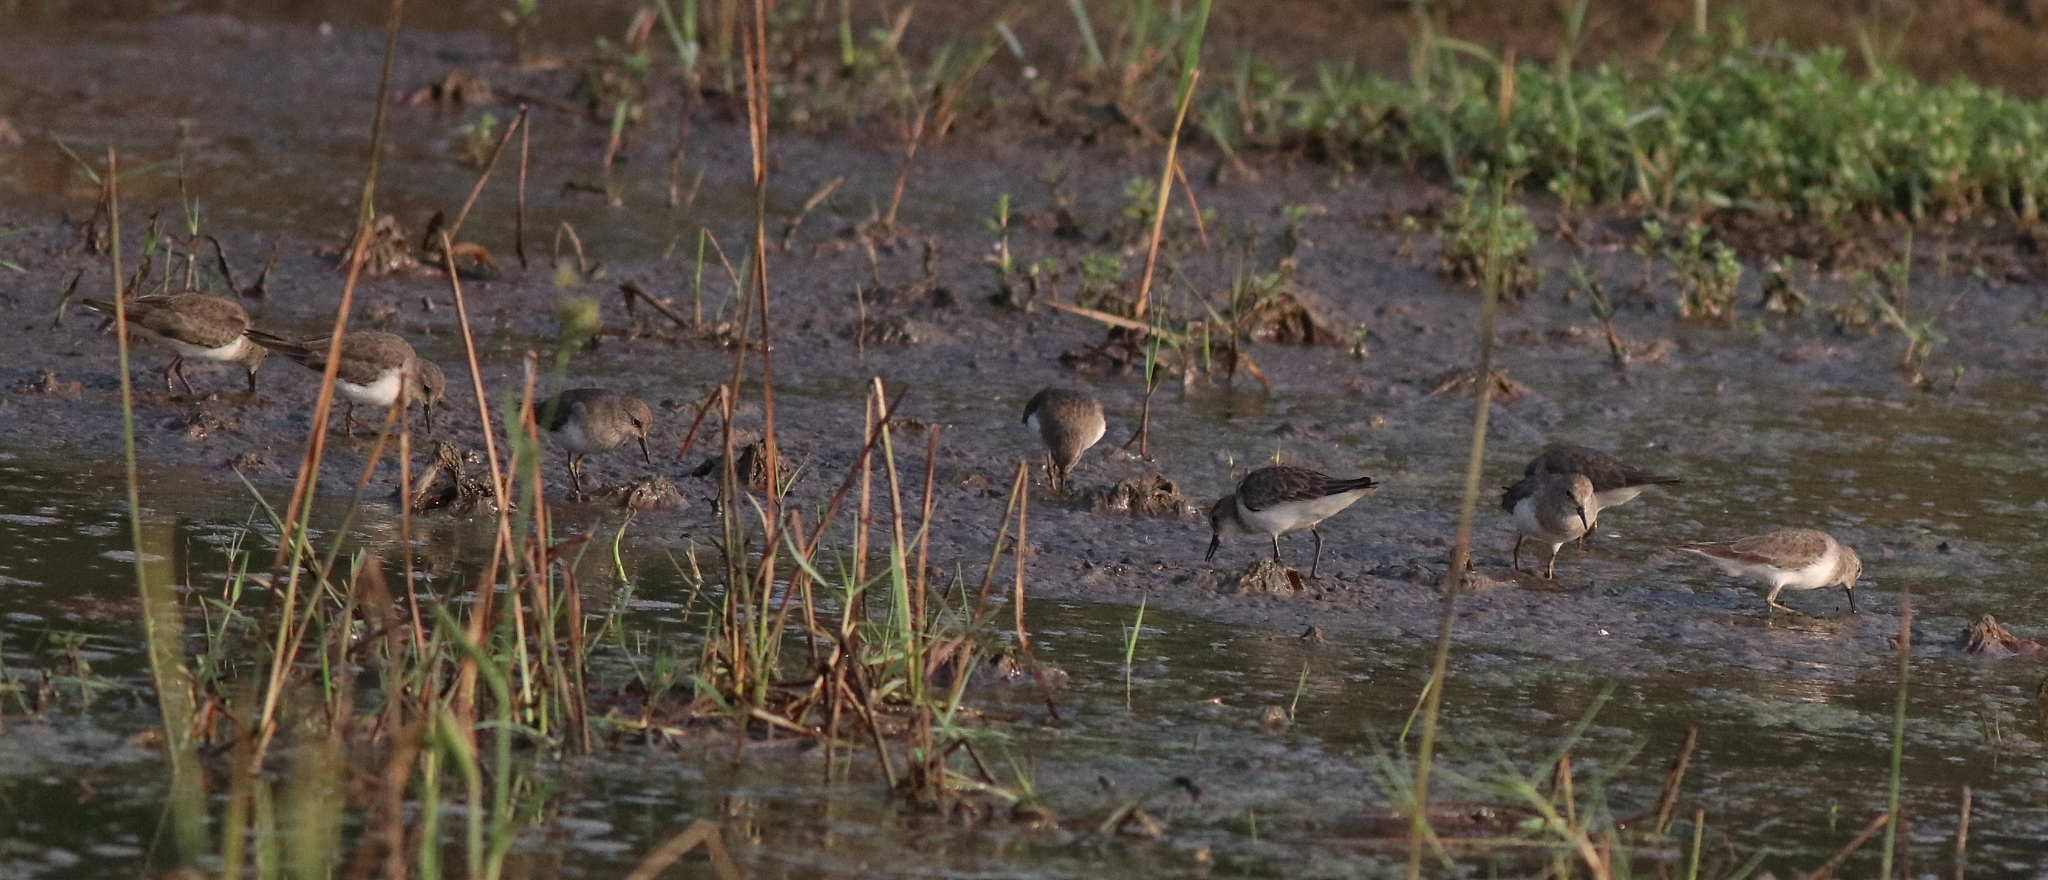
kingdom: Animalia
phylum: Chordata
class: Aves
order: Charadriiformes
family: Scolopacidae
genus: Calidris
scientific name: Calidris temminckii
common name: Temminck's stint
